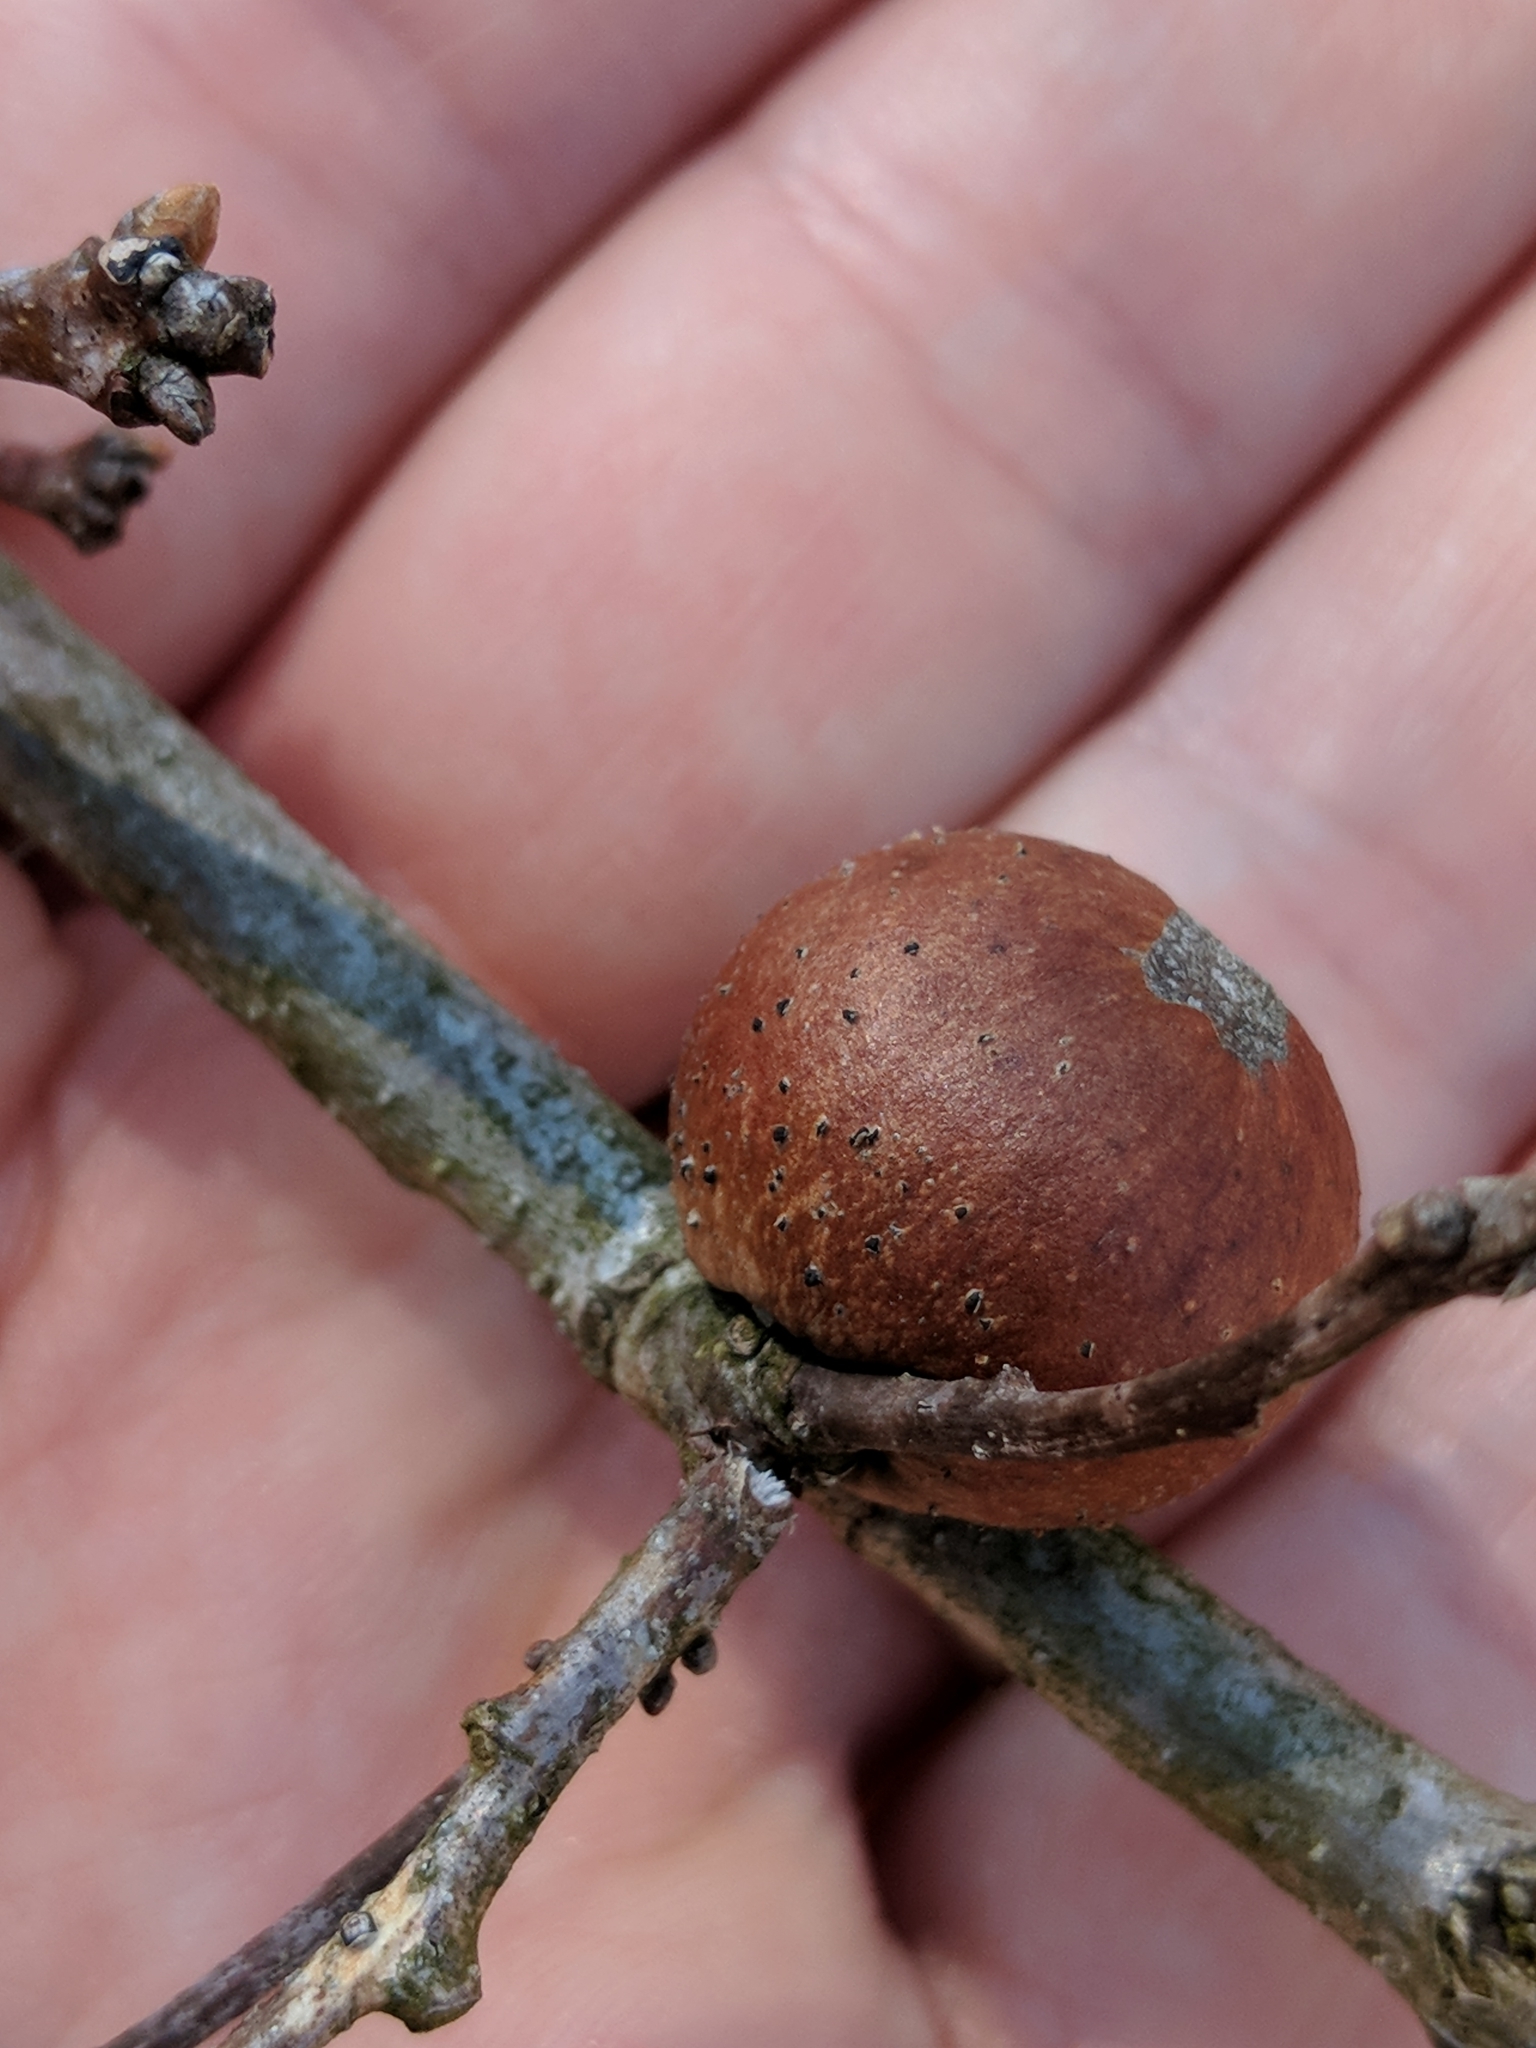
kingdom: Animalia
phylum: Arthropoda
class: Insecta
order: Hymenoptera
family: Cynipidae
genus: Disholcaspis
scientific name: Disholcaspis quercusglobulus
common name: Round bullet gall wasp
